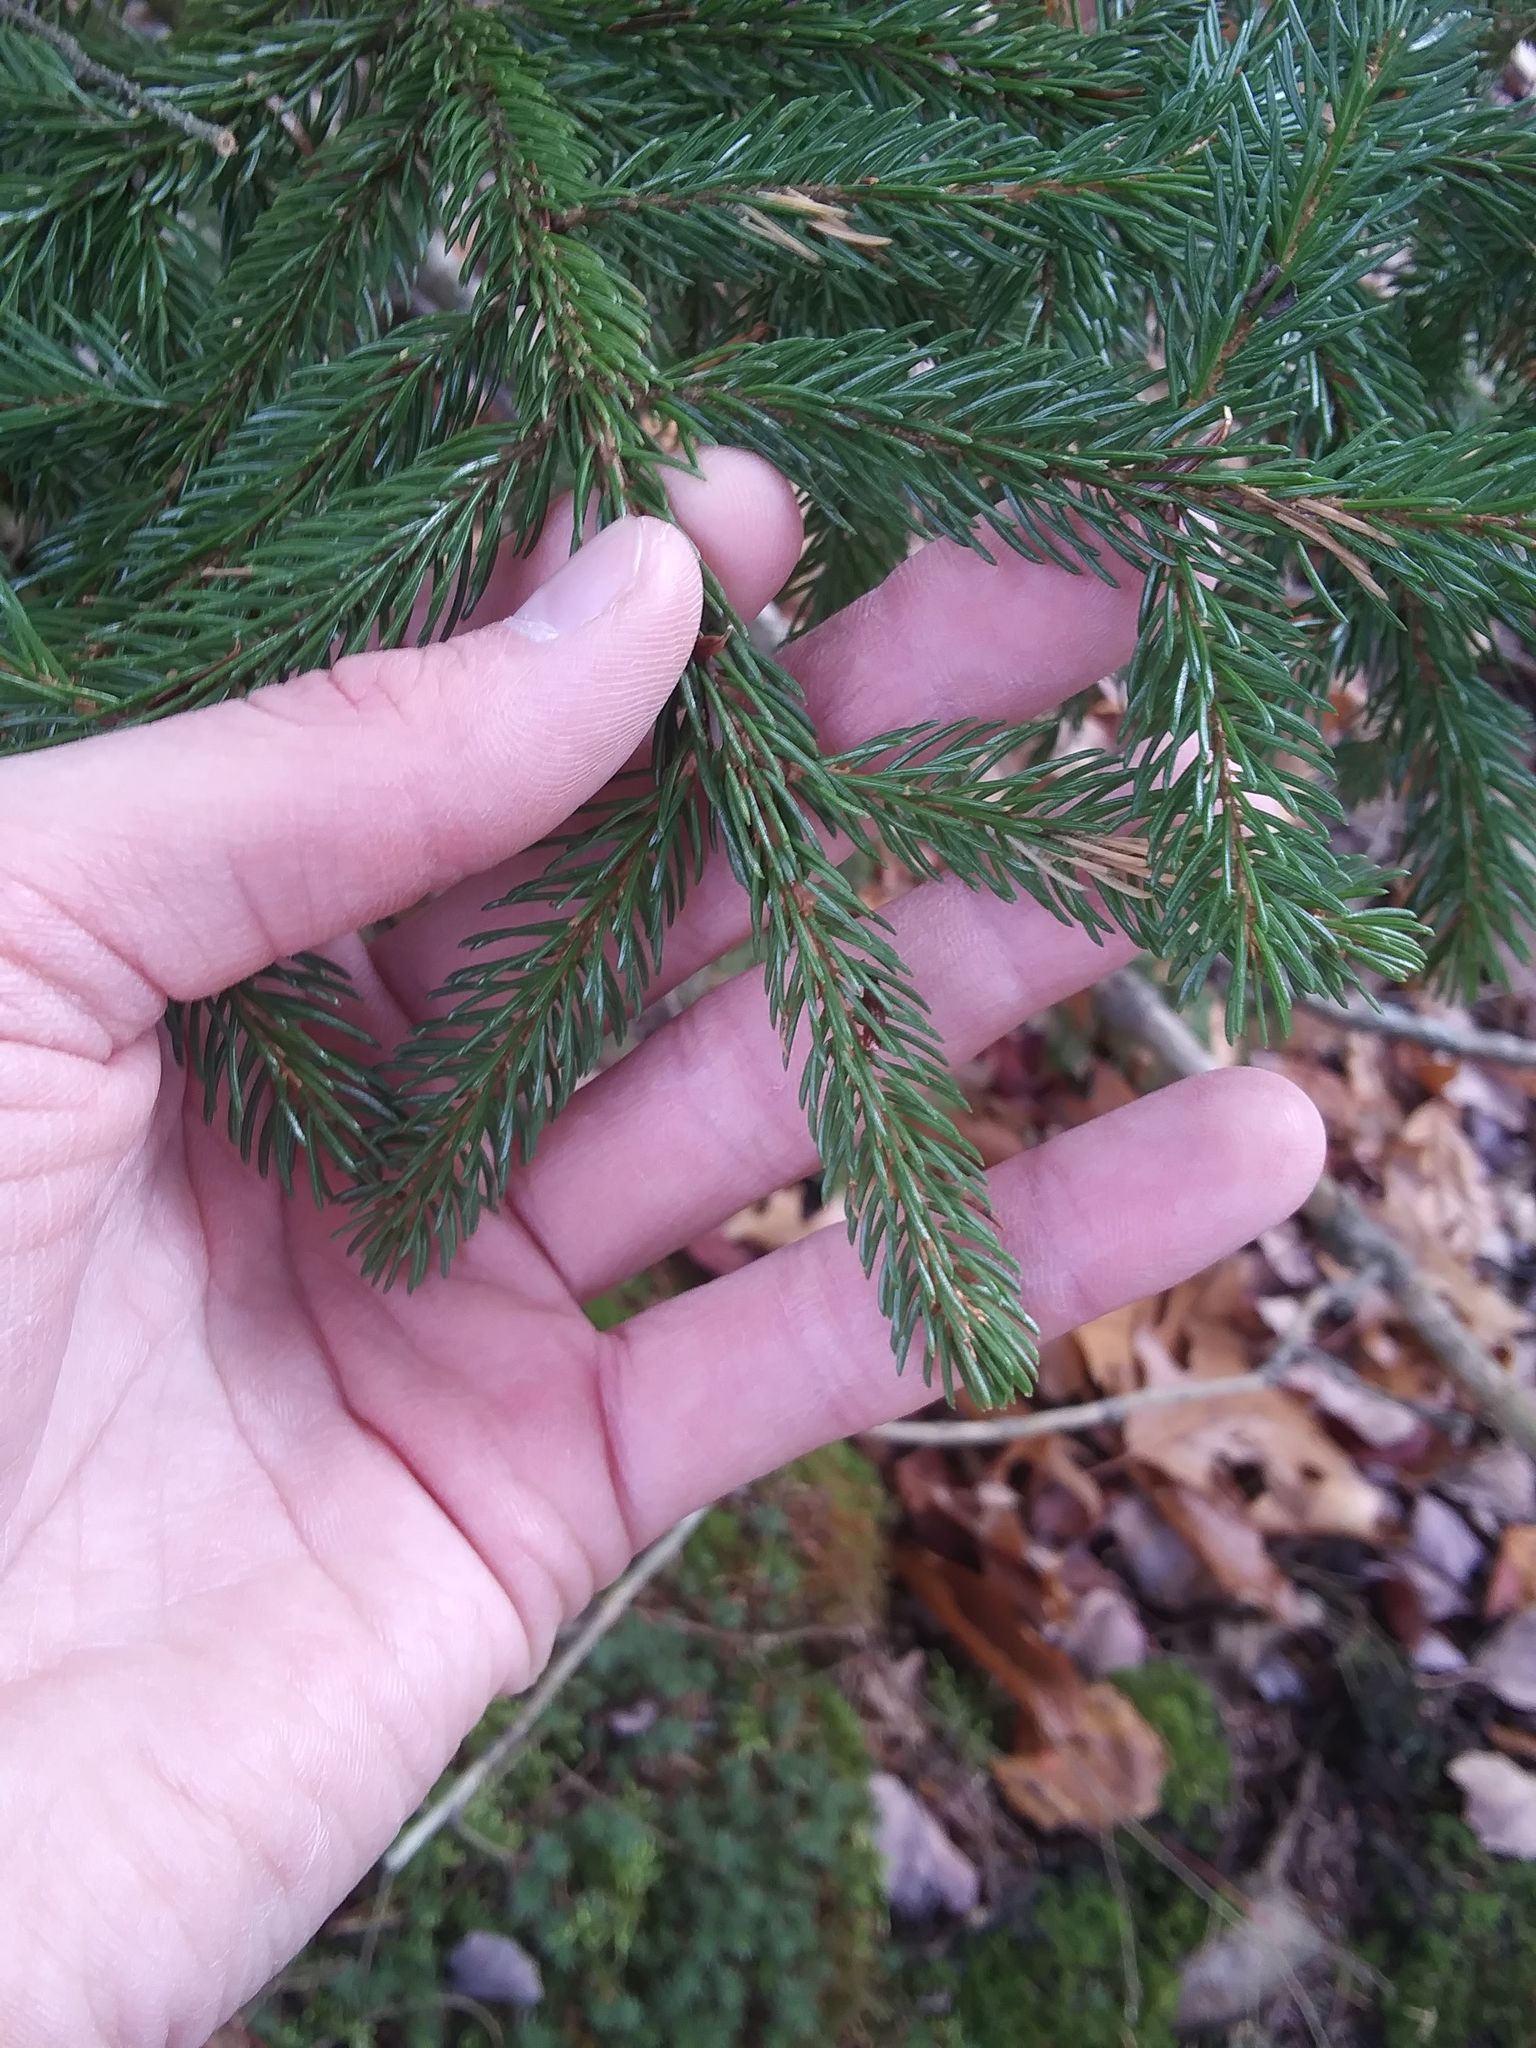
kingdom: Plantae
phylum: Tracheophyta
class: Pinopsida
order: Pinales
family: Pinaceae
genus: Picea
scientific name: Picea rubens
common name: Red spruce
